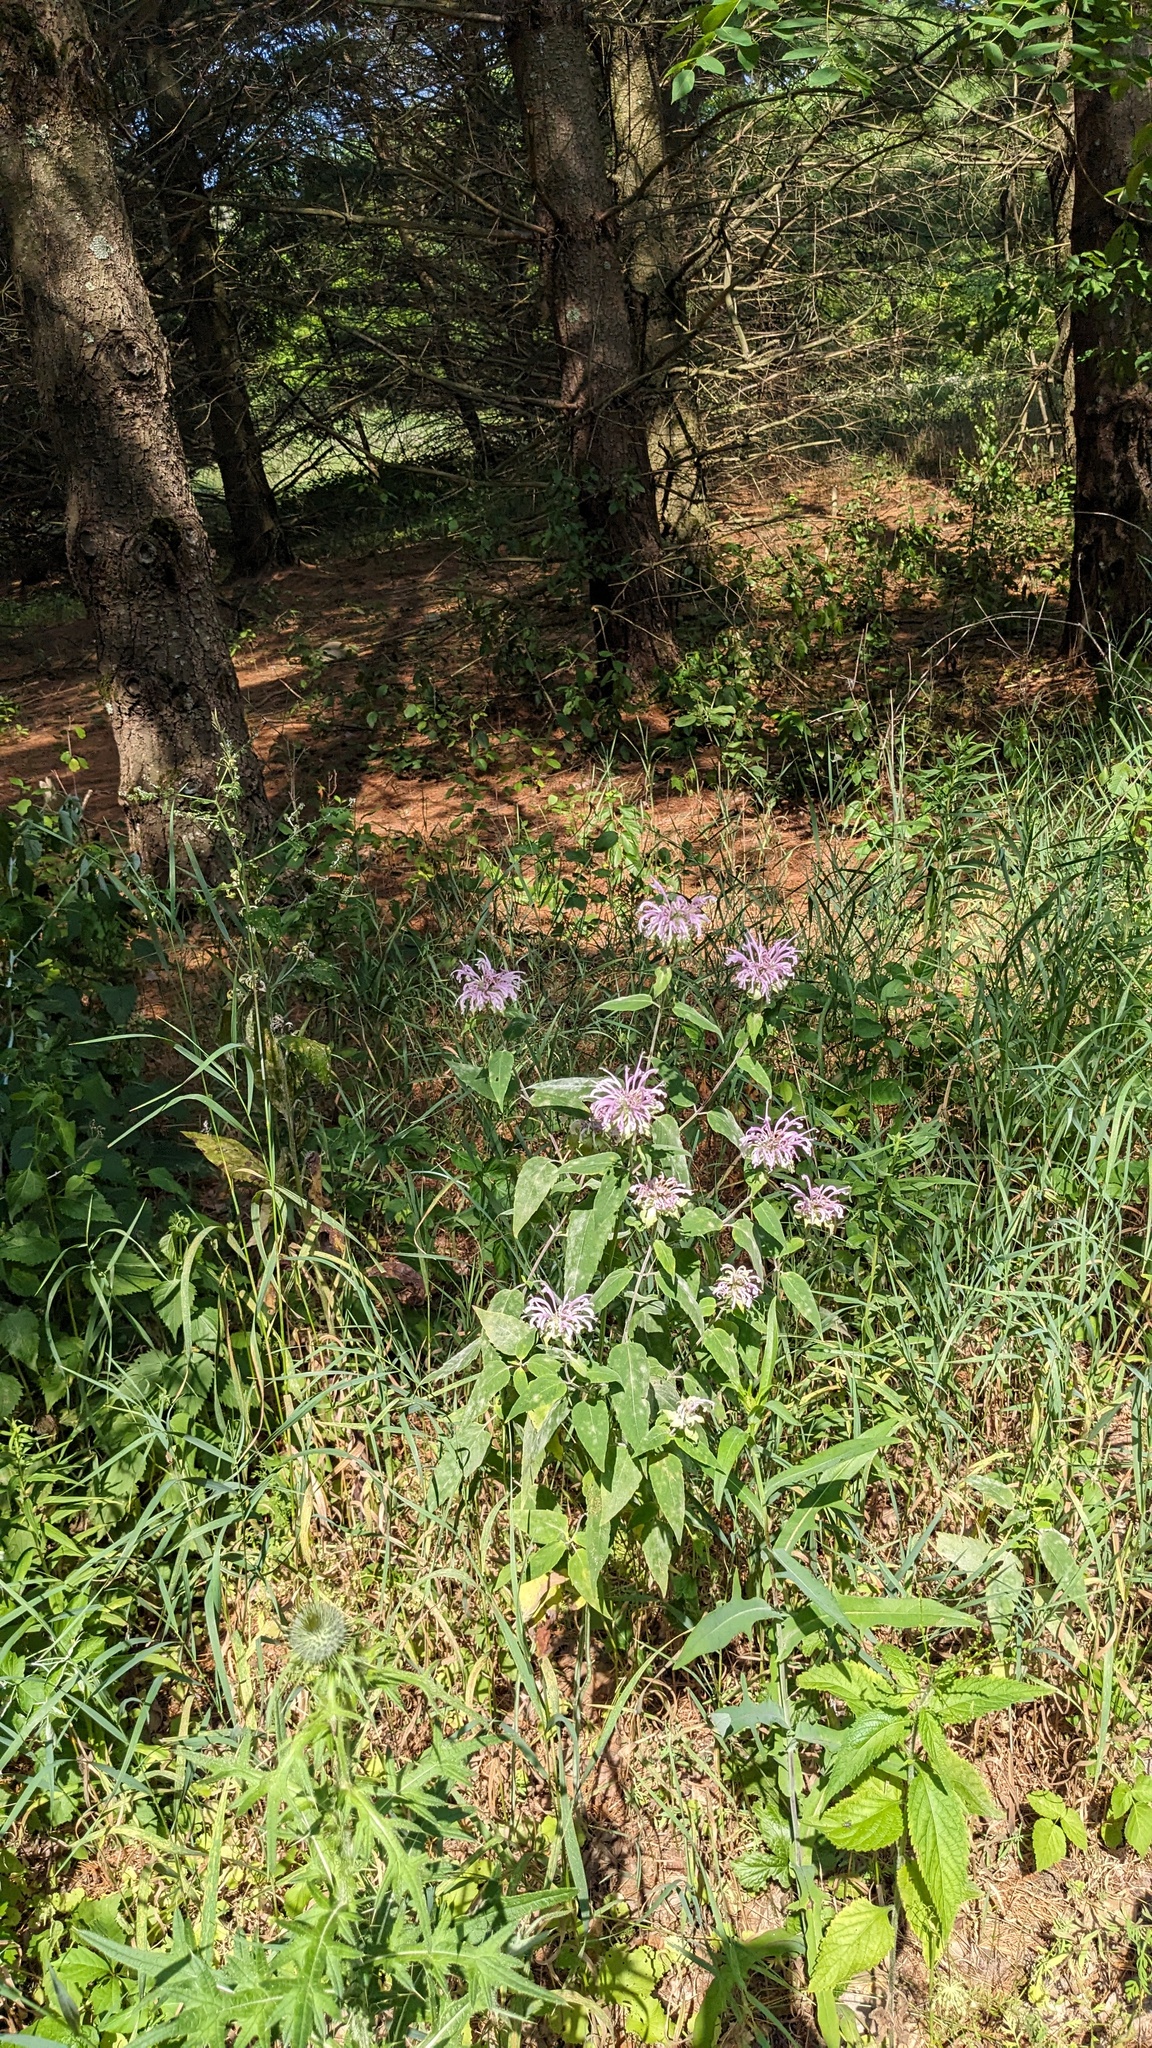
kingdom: Plantae
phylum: Tracheophyta
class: Magnoliopsida
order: Lamiales
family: Lamiaceae
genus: Monarda
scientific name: Monarda fistulosa
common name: Purple beebalm
